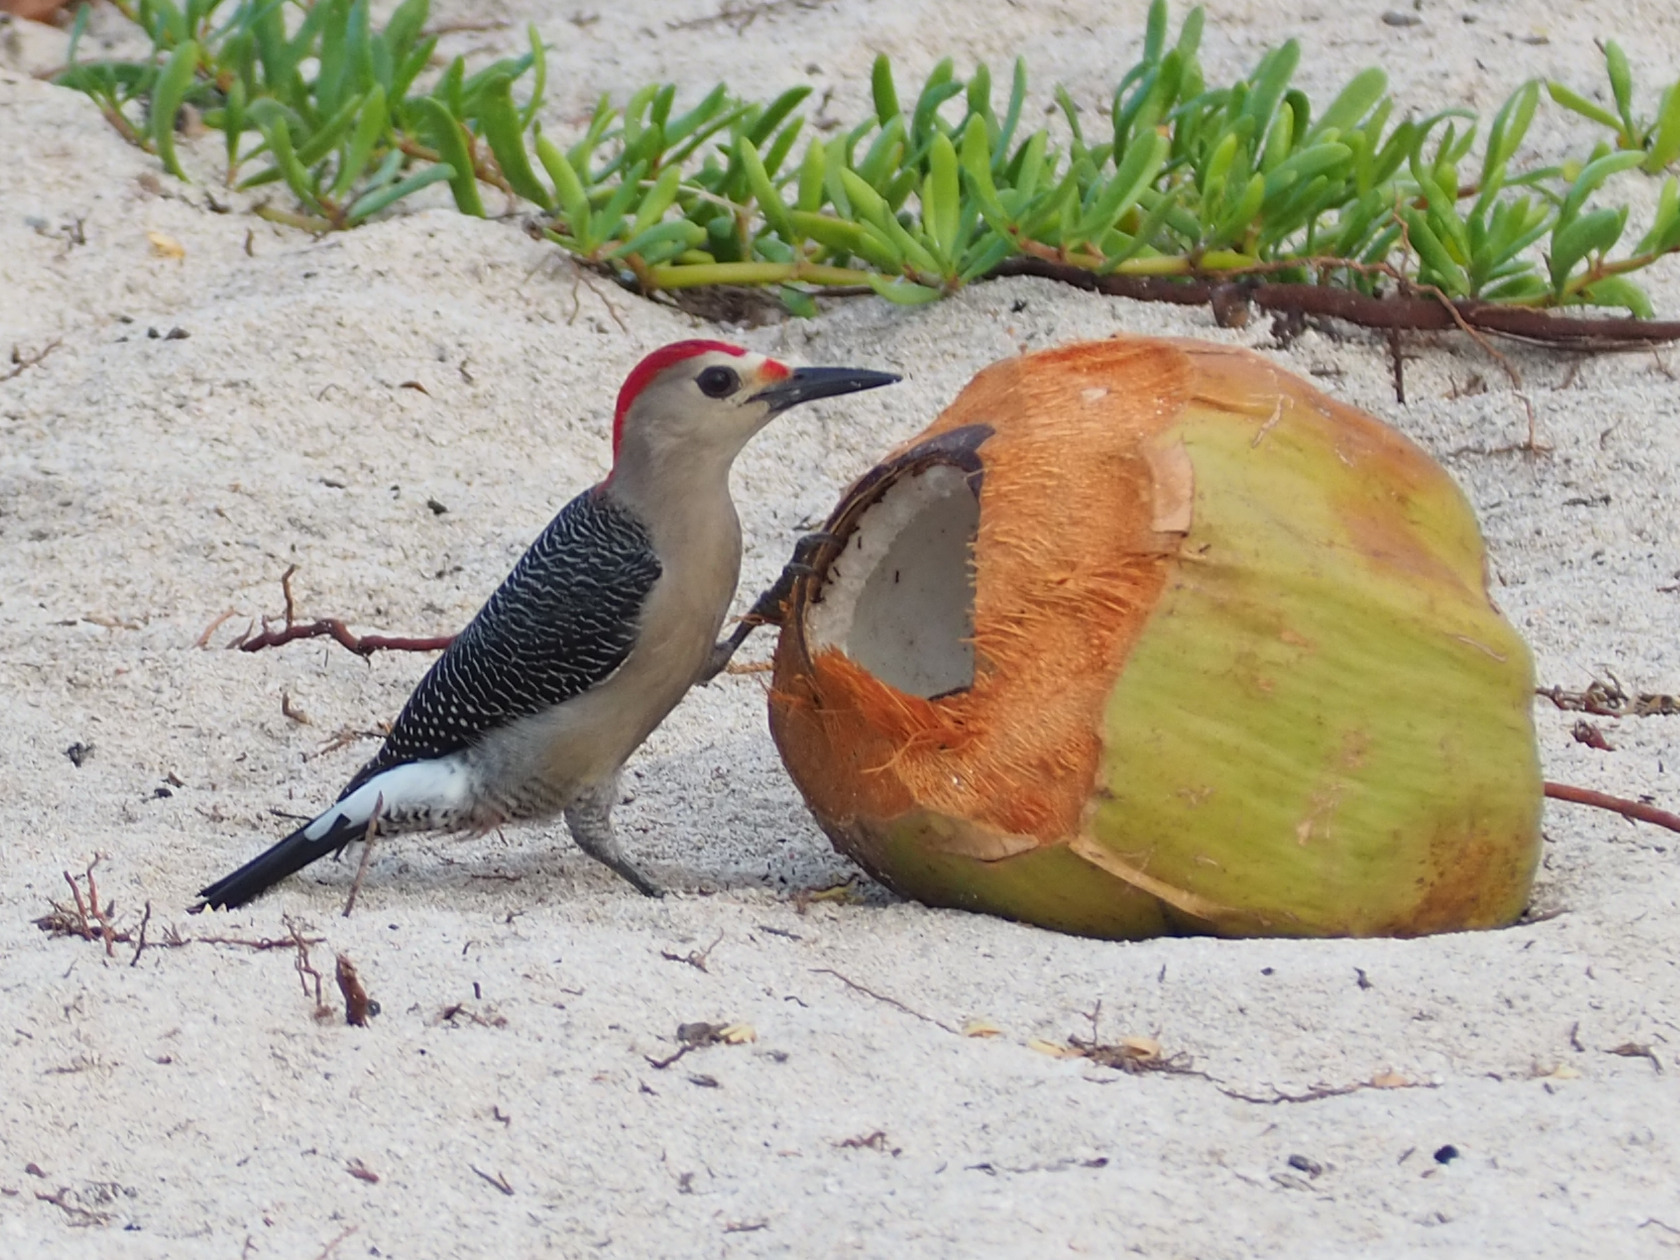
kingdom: Animalia
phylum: Chordata
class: Aves
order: Piciformes
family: Picidae
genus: Melanerpes
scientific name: Melanerpes aurifrons
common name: Golden-fronted woodpecker
